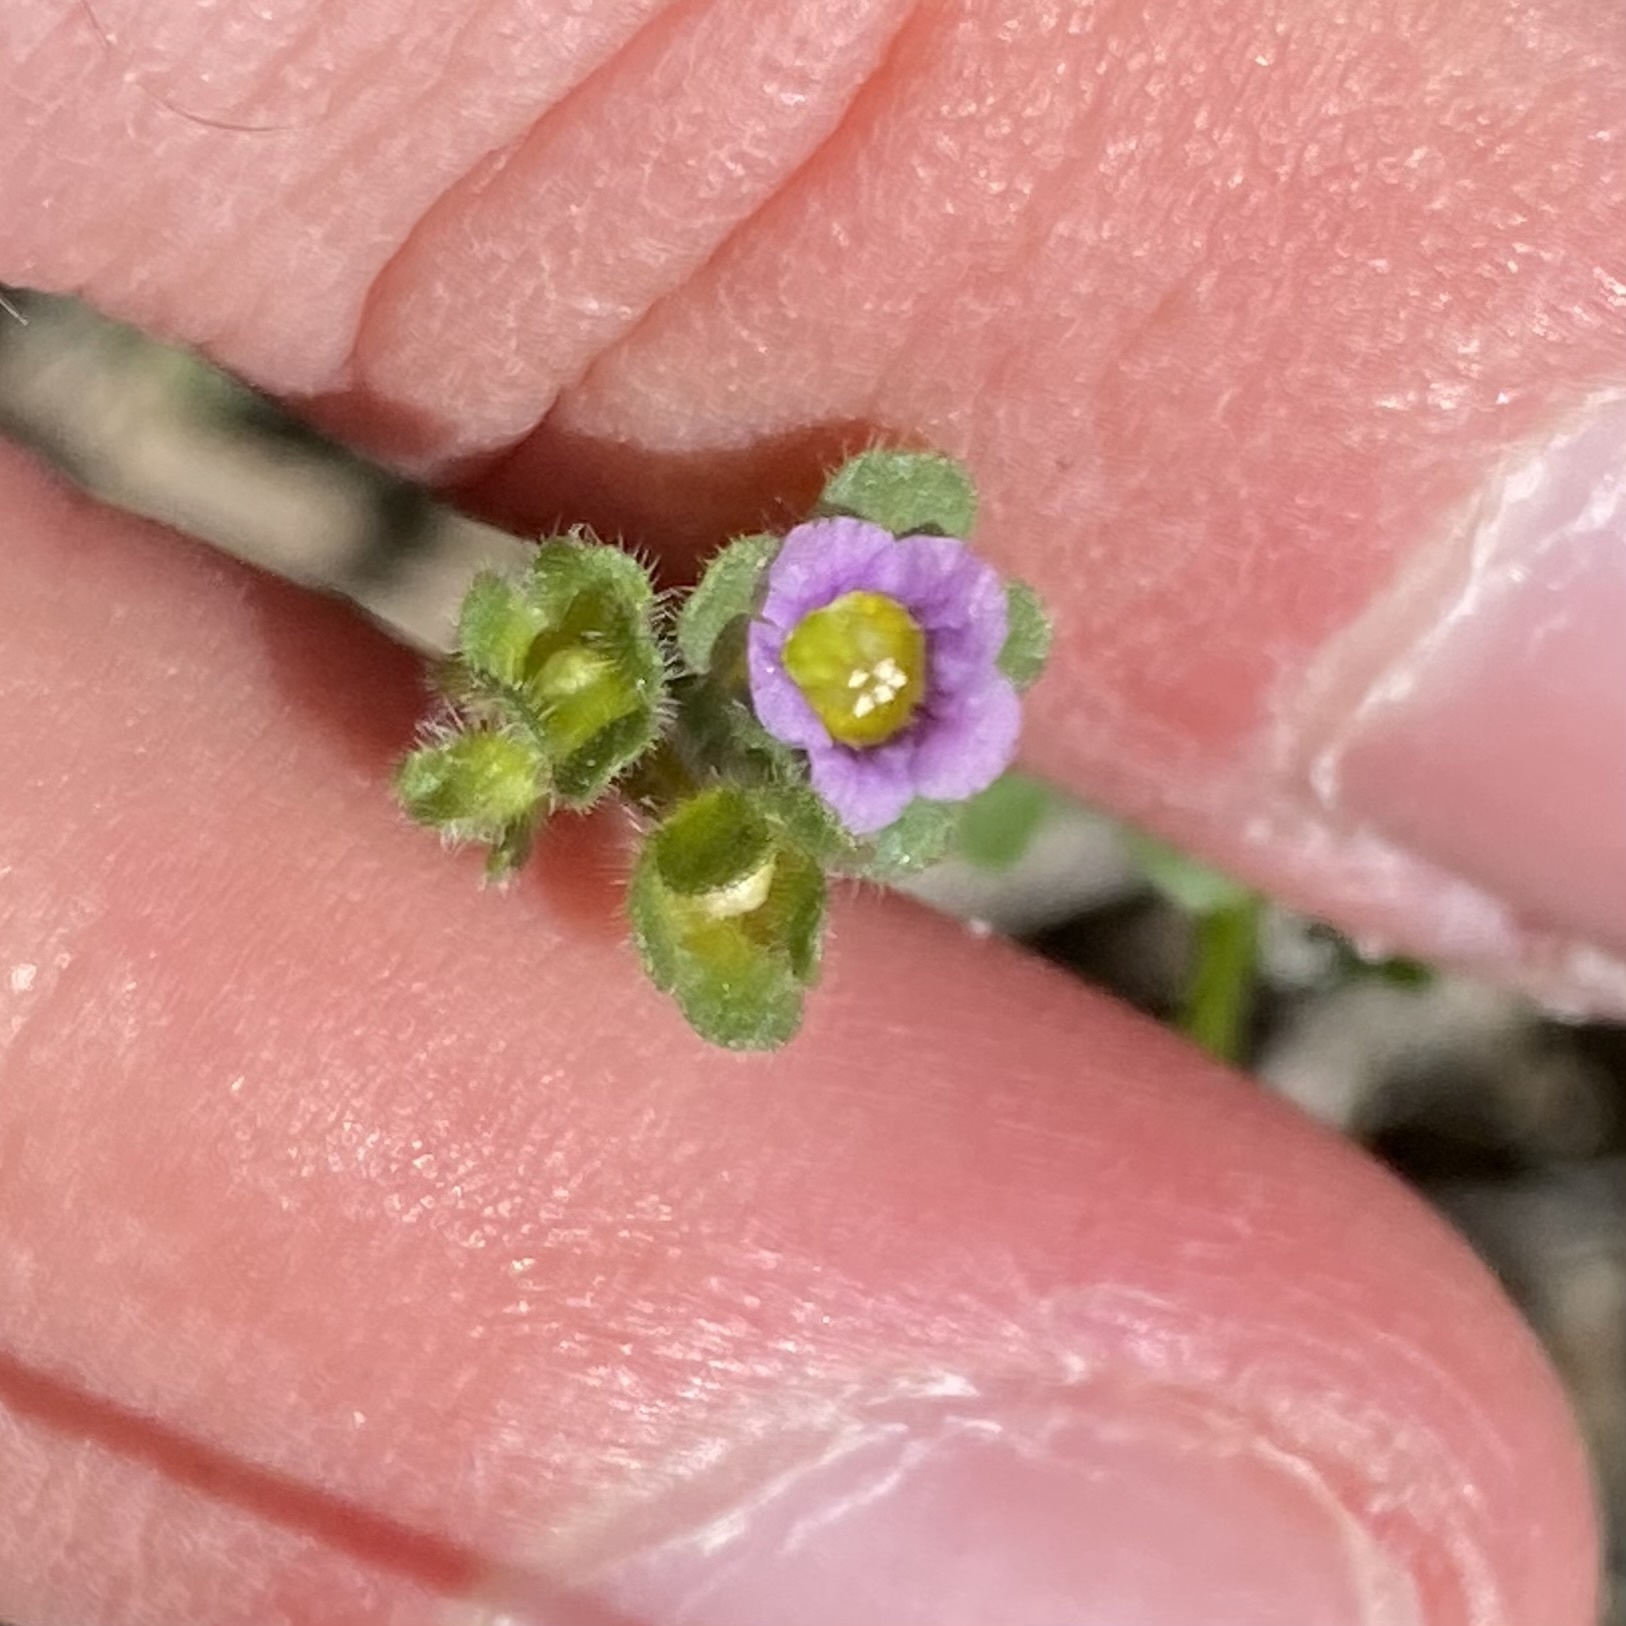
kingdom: Plantae
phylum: Tracheophyta
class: Magnoliopsida
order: Boraginales
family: Hydrophyllaceae
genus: Eucrypta
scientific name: Eucrypta micrantha
